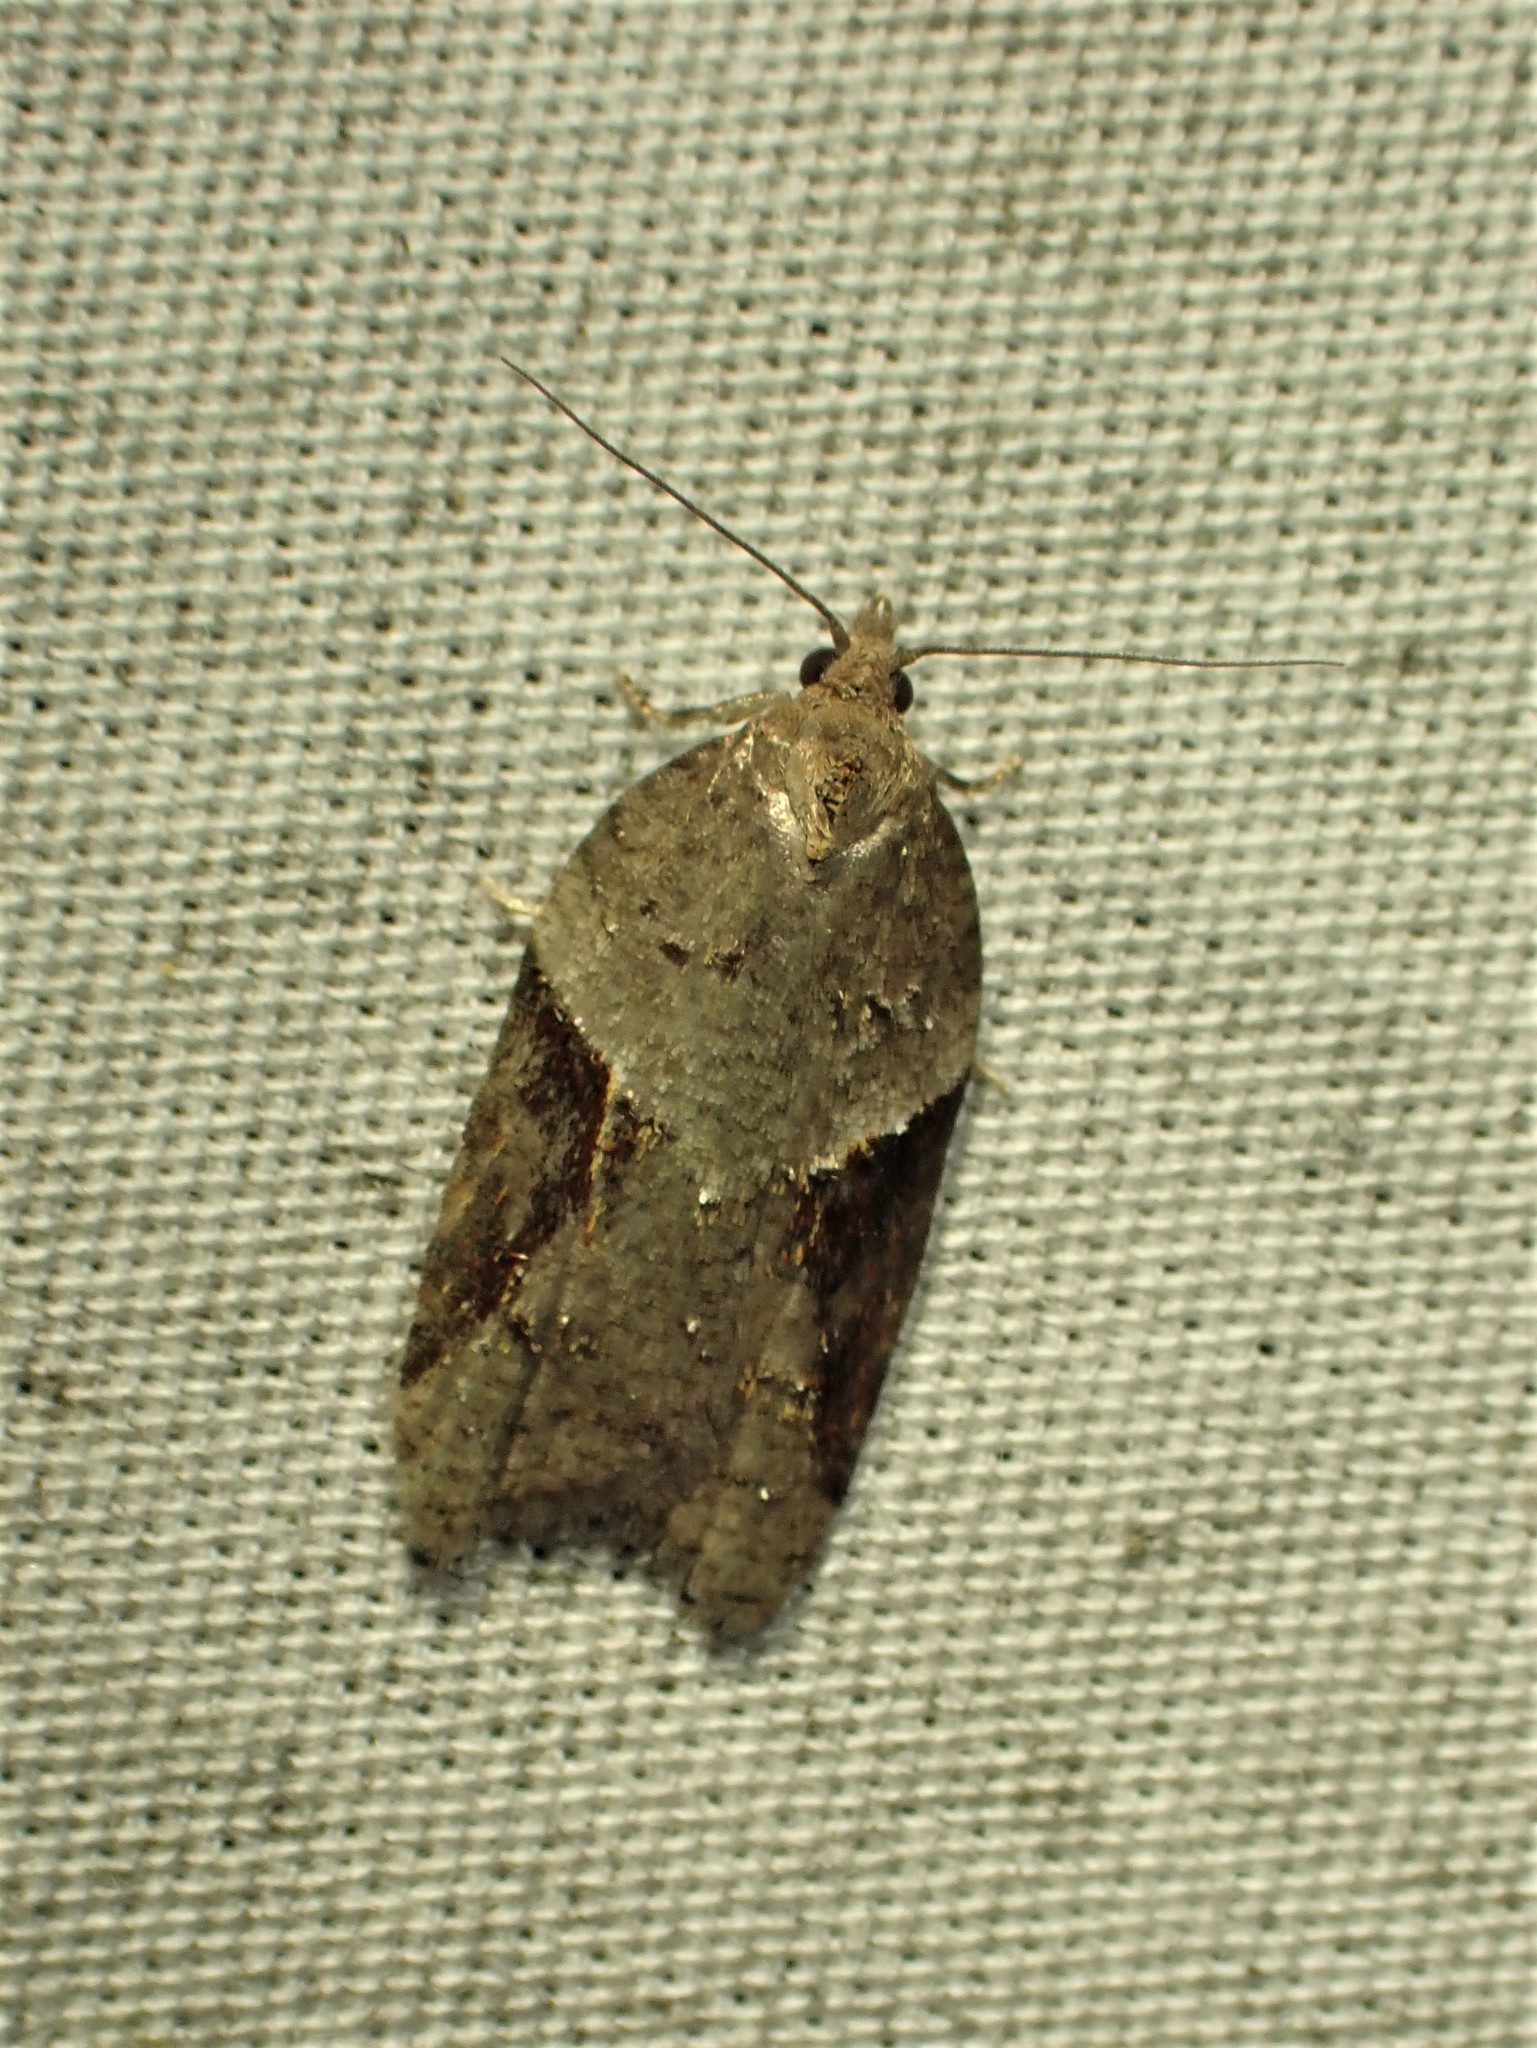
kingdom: Animalia
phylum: Arthropoda
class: Insecta
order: Lepidoptera
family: Tortricidae
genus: Acleris
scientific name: Acleris macdunnoughi
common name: Macdunnough's acleris
